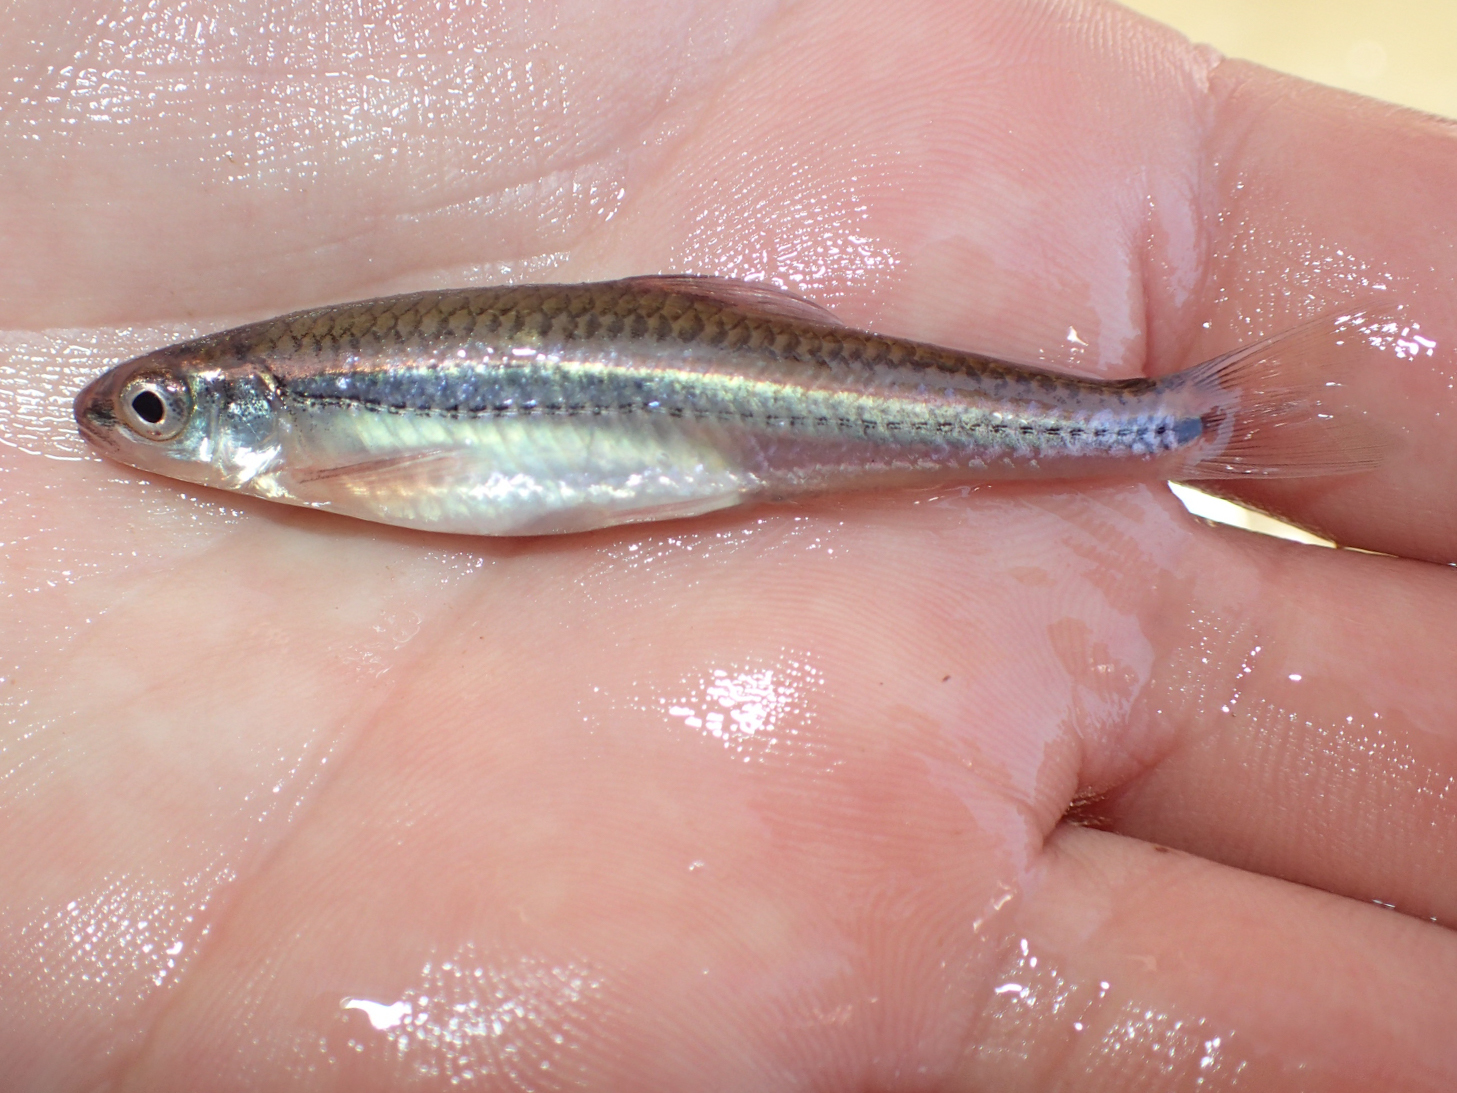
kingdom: Animalia
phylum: Chordata
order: Cypriniformes
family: Cyprinidae
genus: Notropis
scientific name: Notropis
